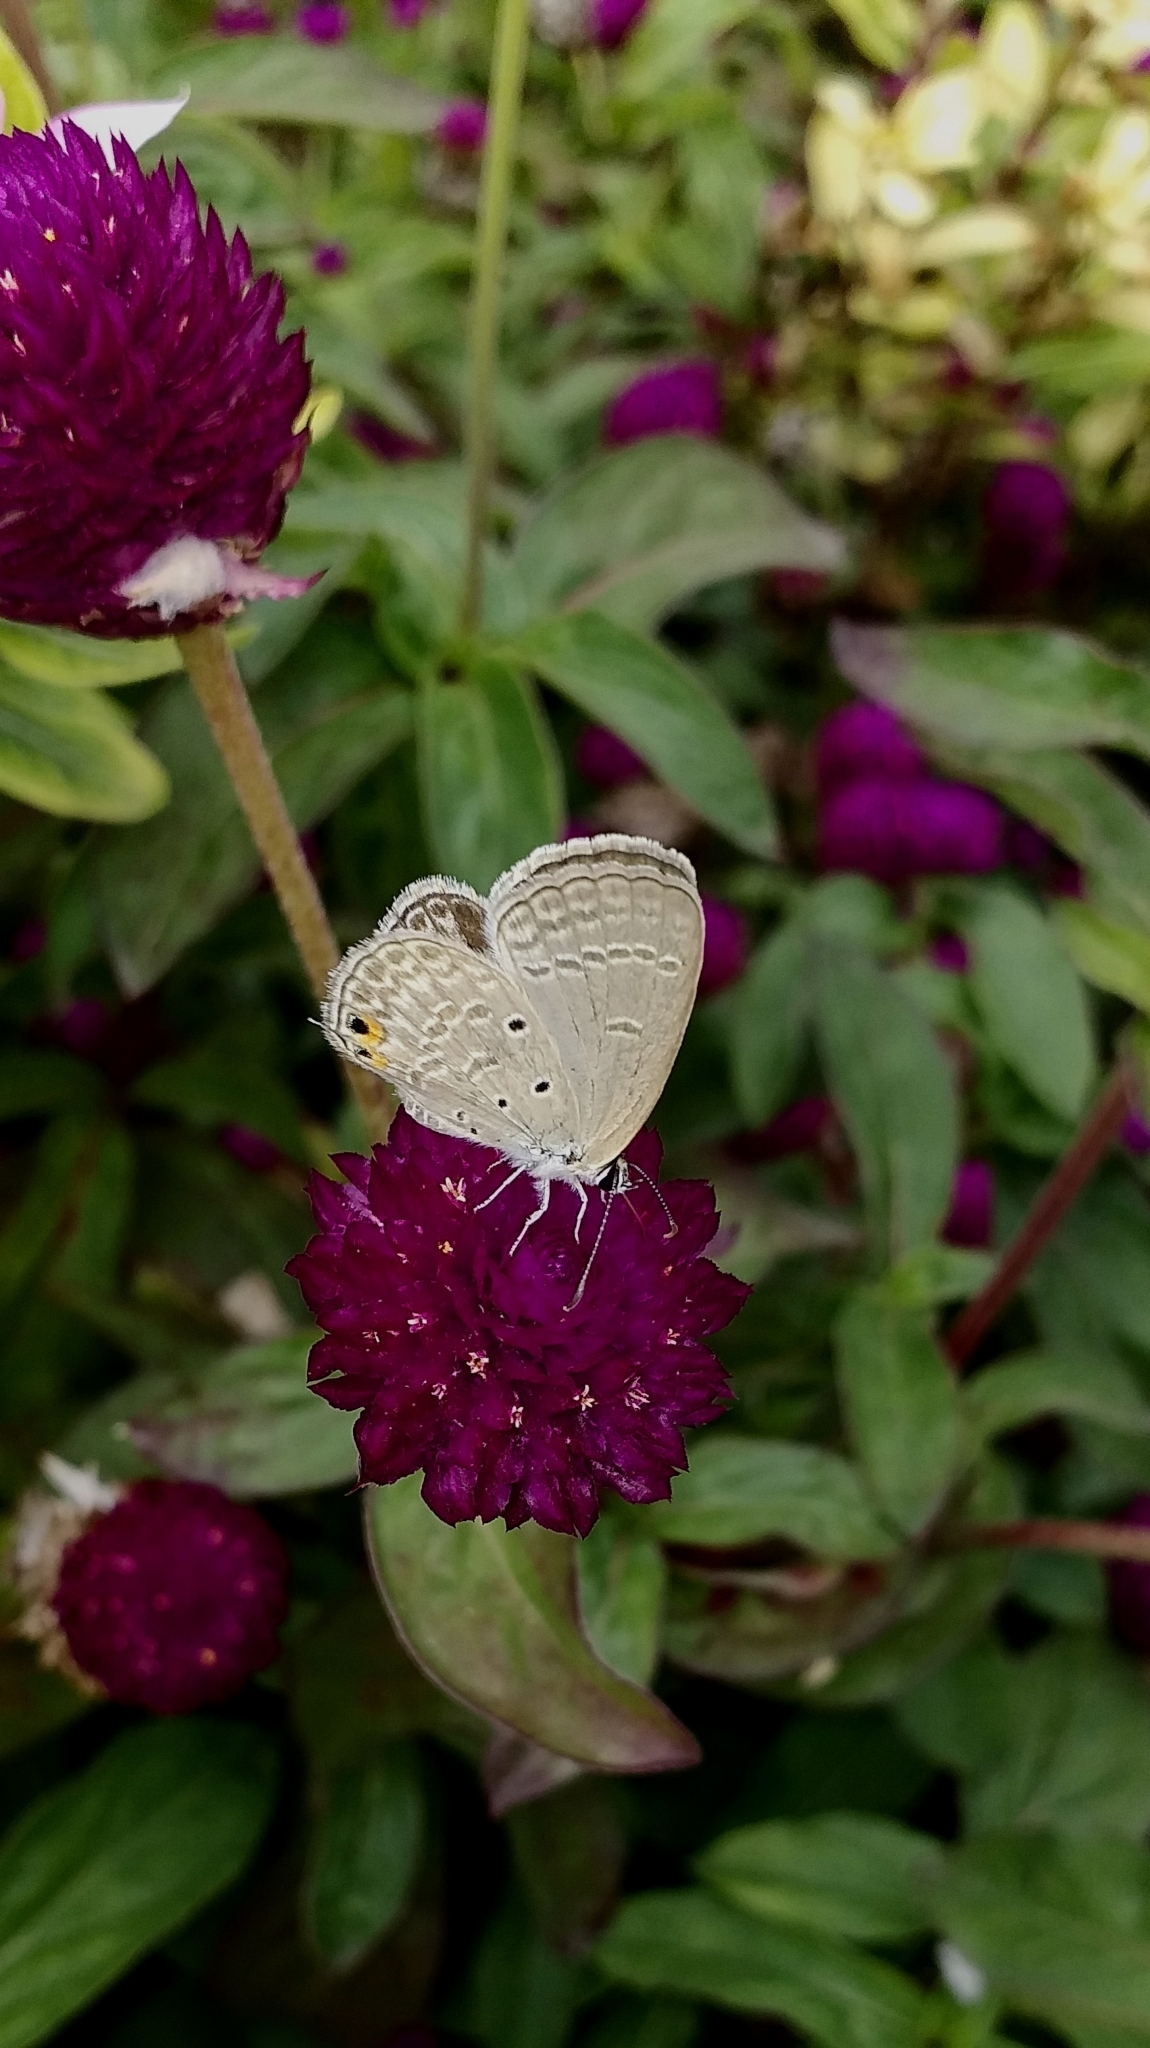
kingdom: Animalia
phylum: Arthropoda
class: Insecta
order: Lepidoptera
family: Lycaenidae
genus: Euchrysops
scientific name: Euchrysops cnejus
